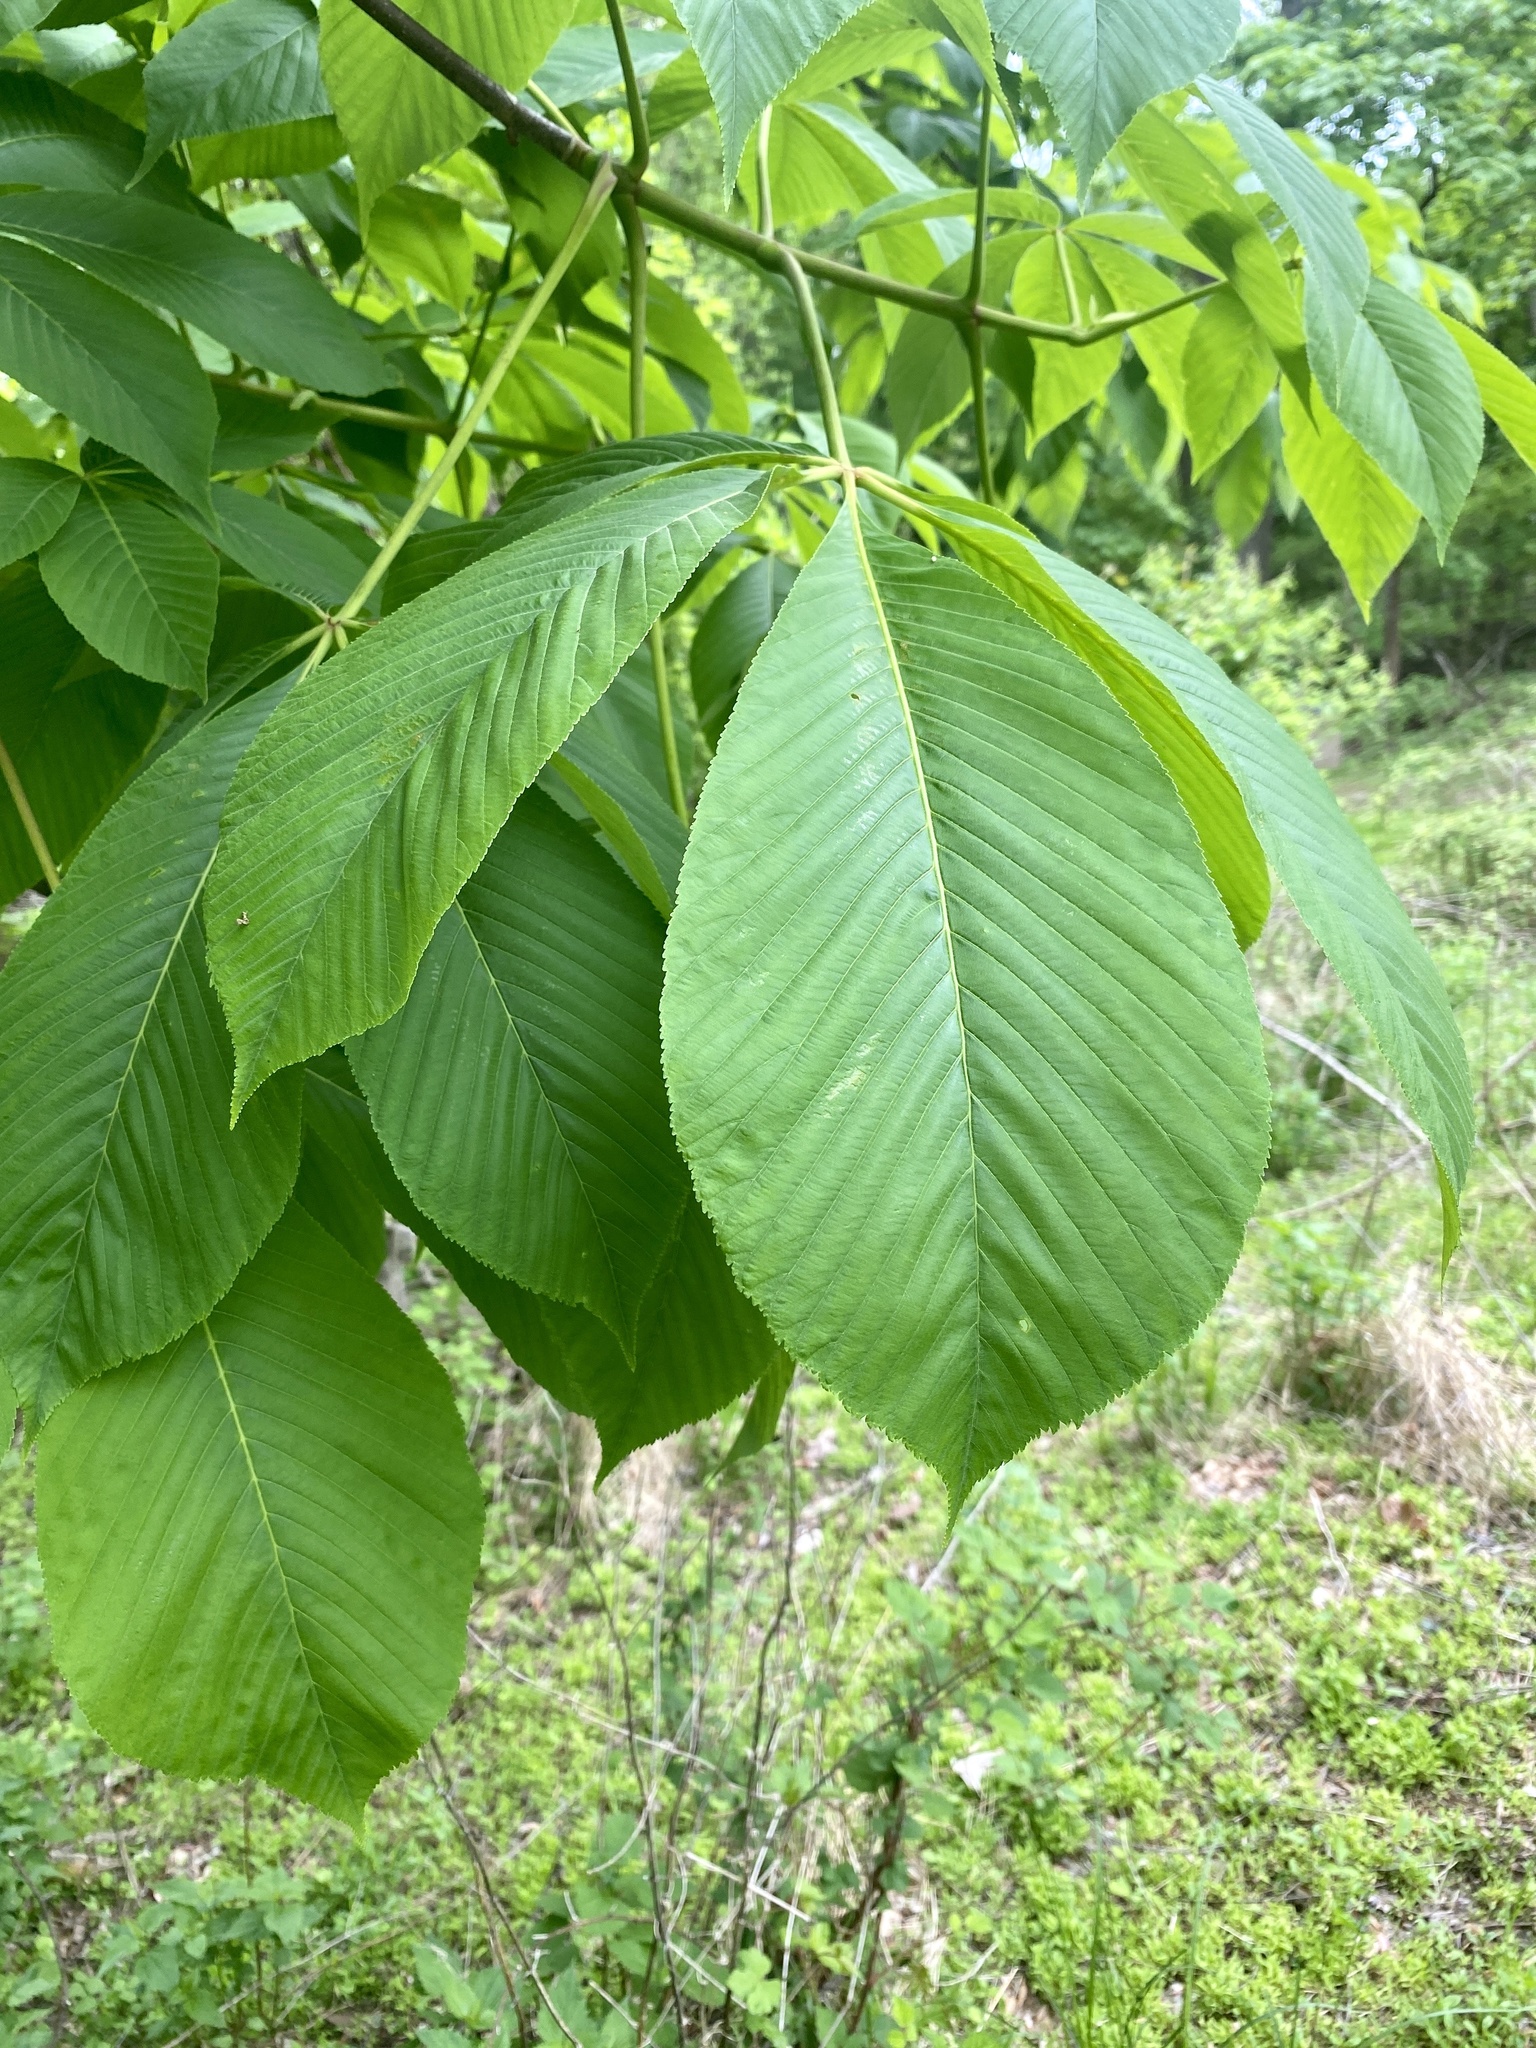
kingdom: Plantae
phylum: Tracheophyta
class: Magnoliopsida
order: Sapindales
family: Sapindaceae
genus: Aesculus
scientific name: Aesculus flava
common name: Yellow buckeye
